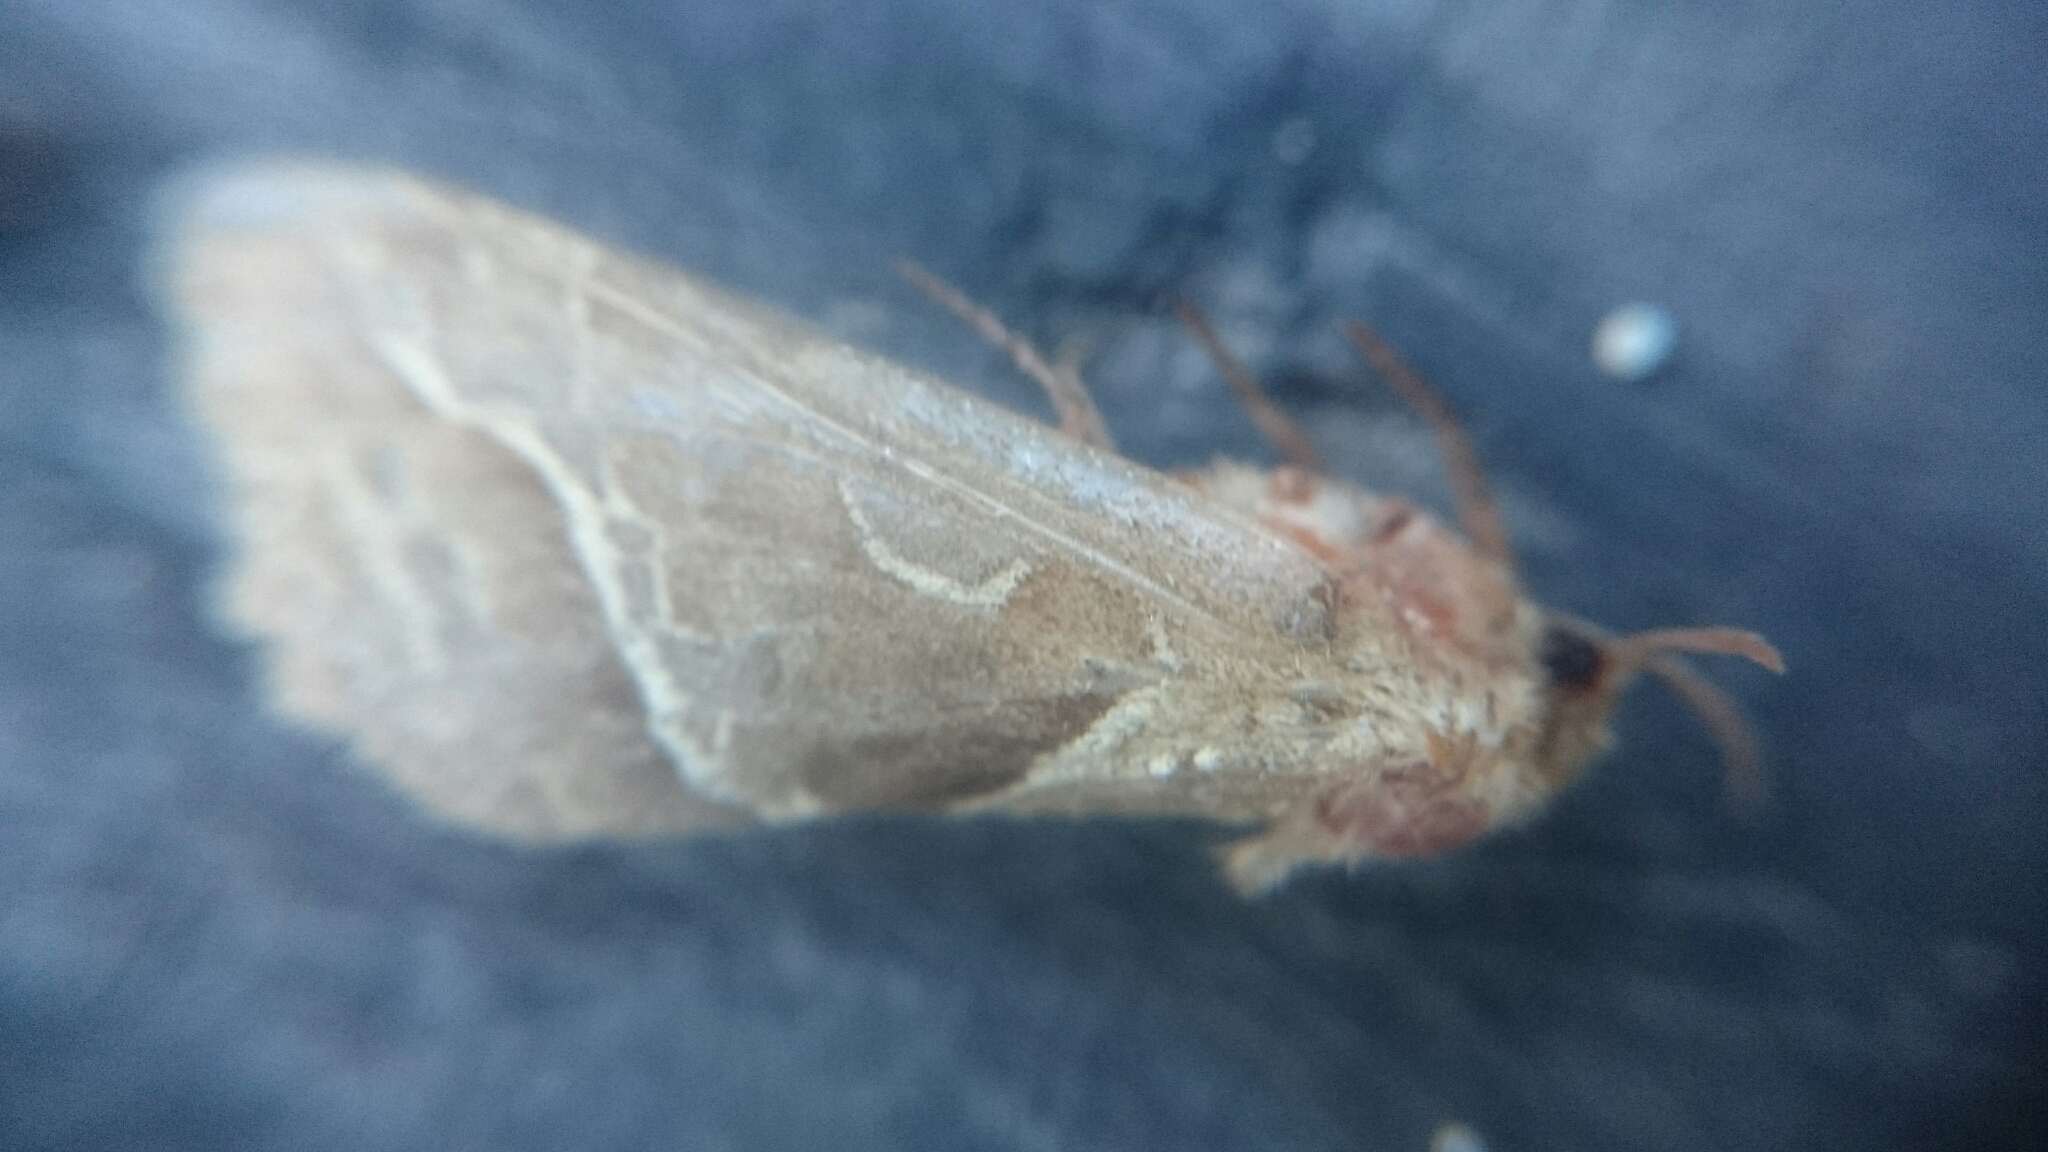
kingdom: Animalia
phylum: Arthropoda
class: Insecta
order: Lepidoptera
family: Hepialidae
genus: Triodia
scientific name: Triodia sylvina
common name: Orange swift
